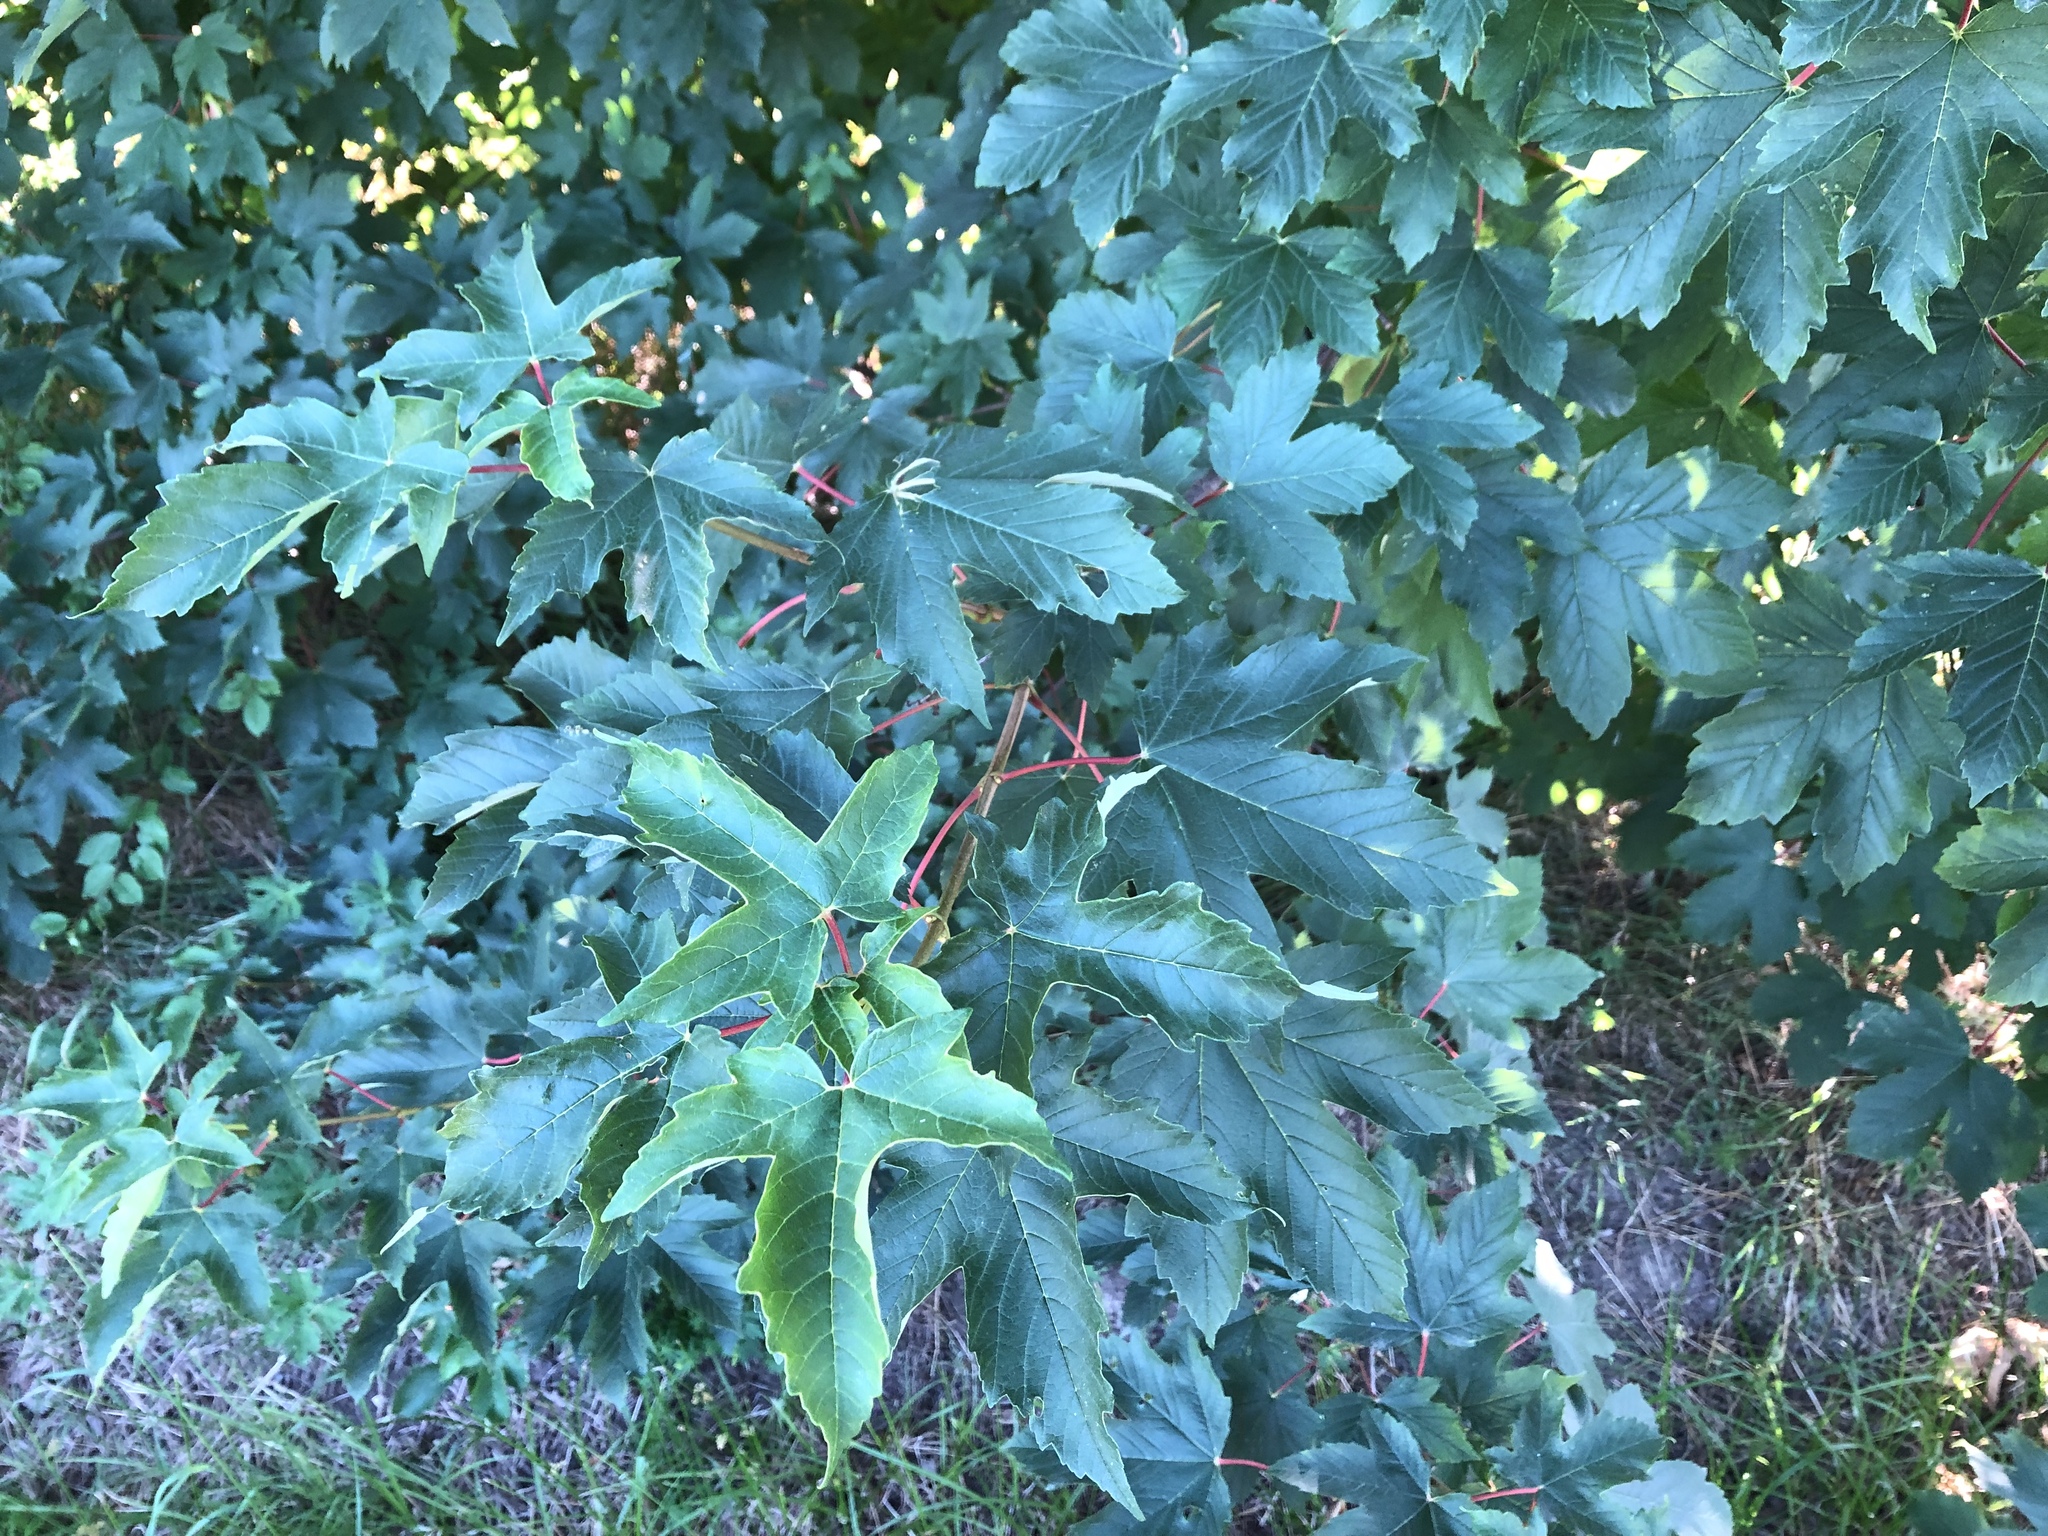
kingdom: Plantae
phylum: Tracheophyta
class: Magnoliopsida
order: Sapindales
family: Sapindaceae
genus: Acer
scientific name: Acer pseudoplatanus
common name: Sycamore
